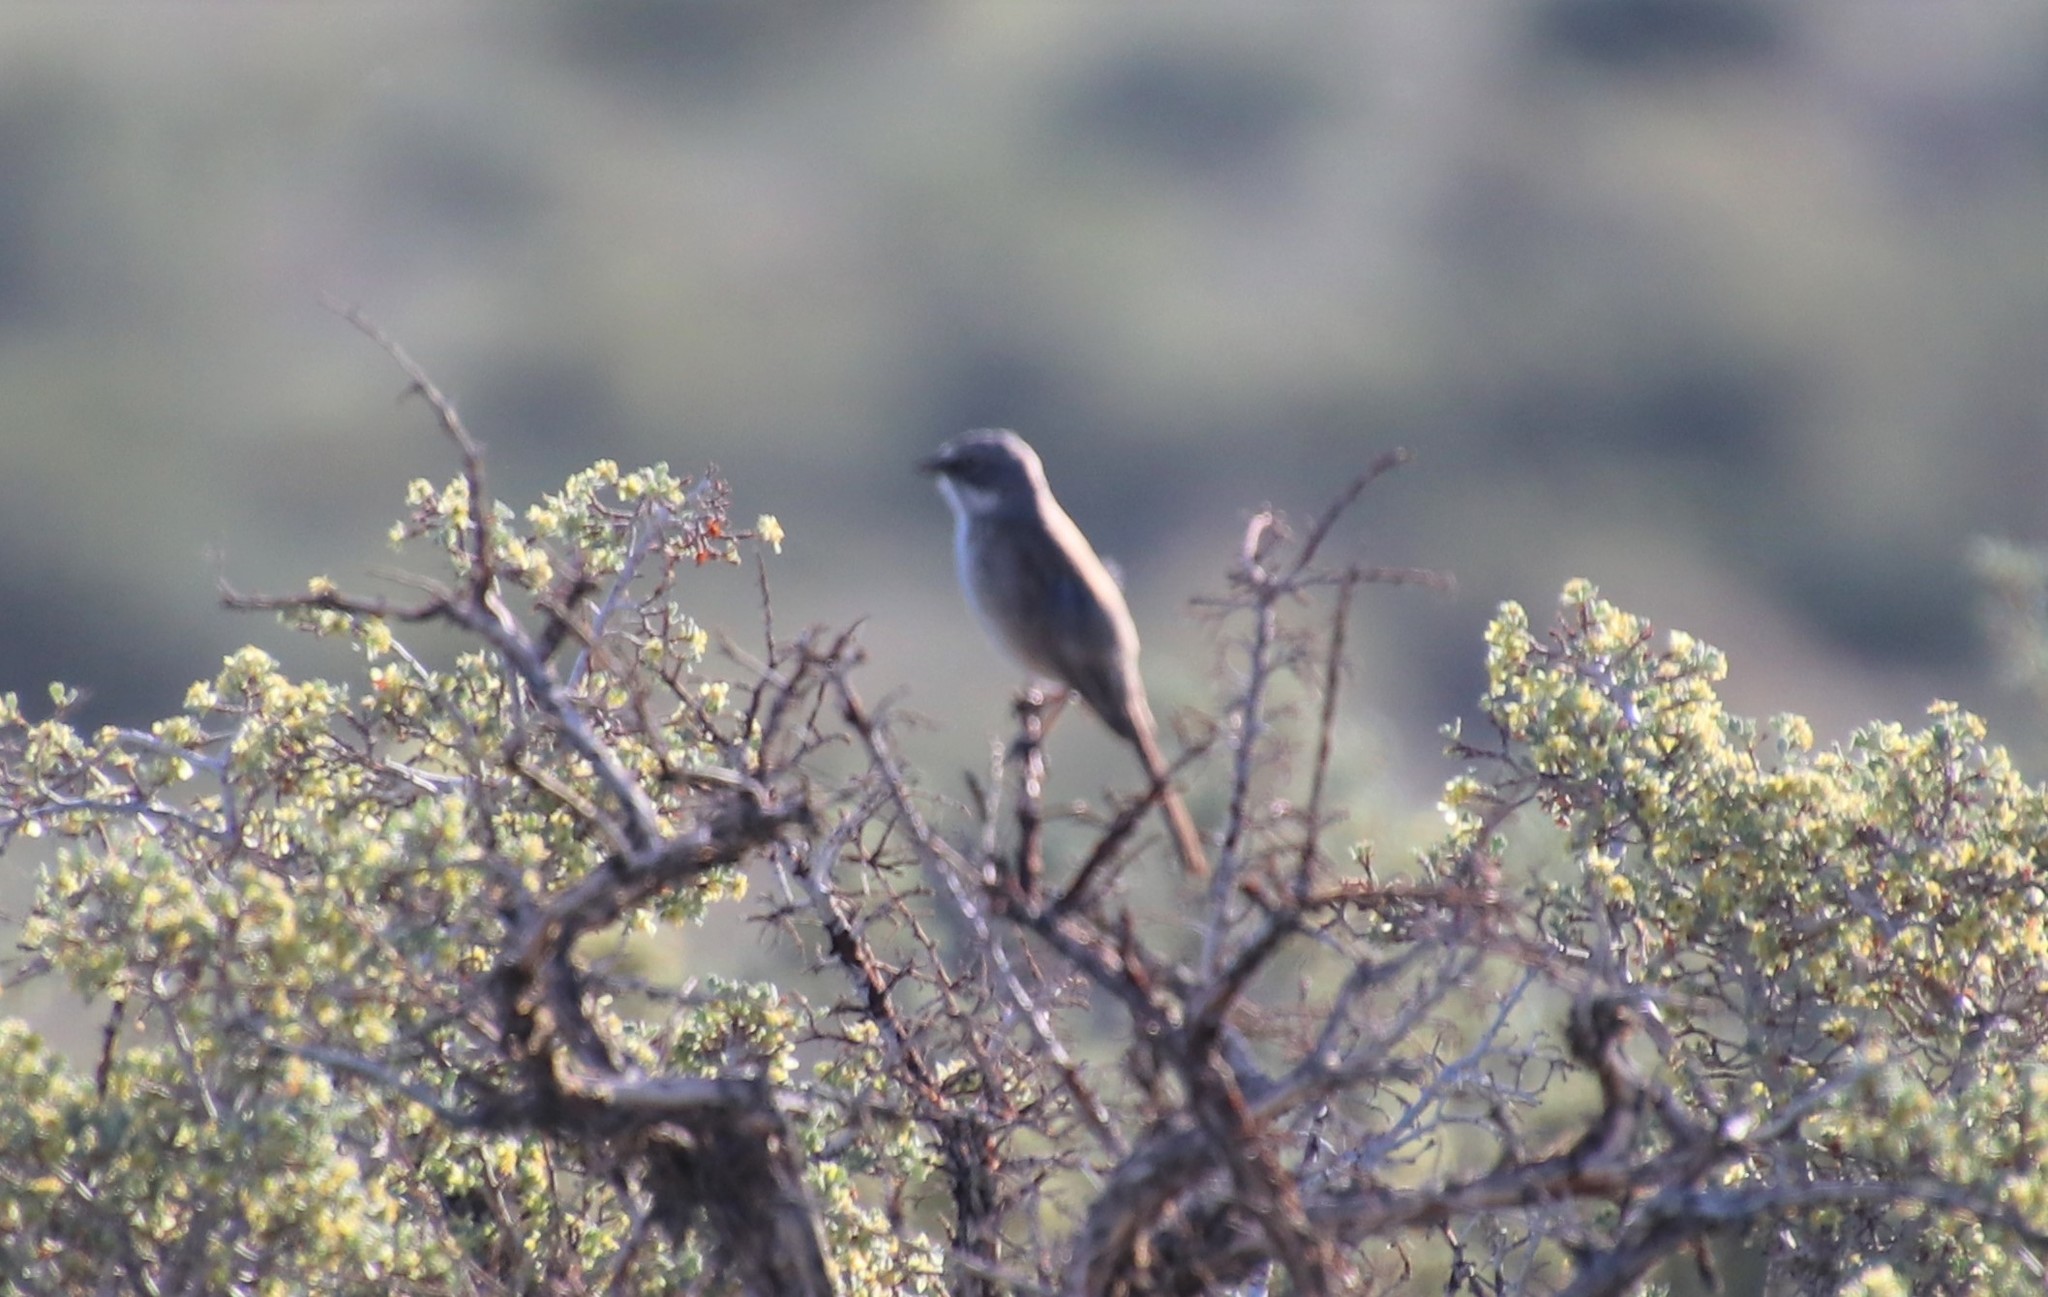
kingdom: Animalia
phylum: Chordata
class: Aves
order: Passeriformes
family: Passerellidae
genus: Artemisiospiza
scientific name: Artemisiospiza nevadensis
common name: Sagebrush sparrow
